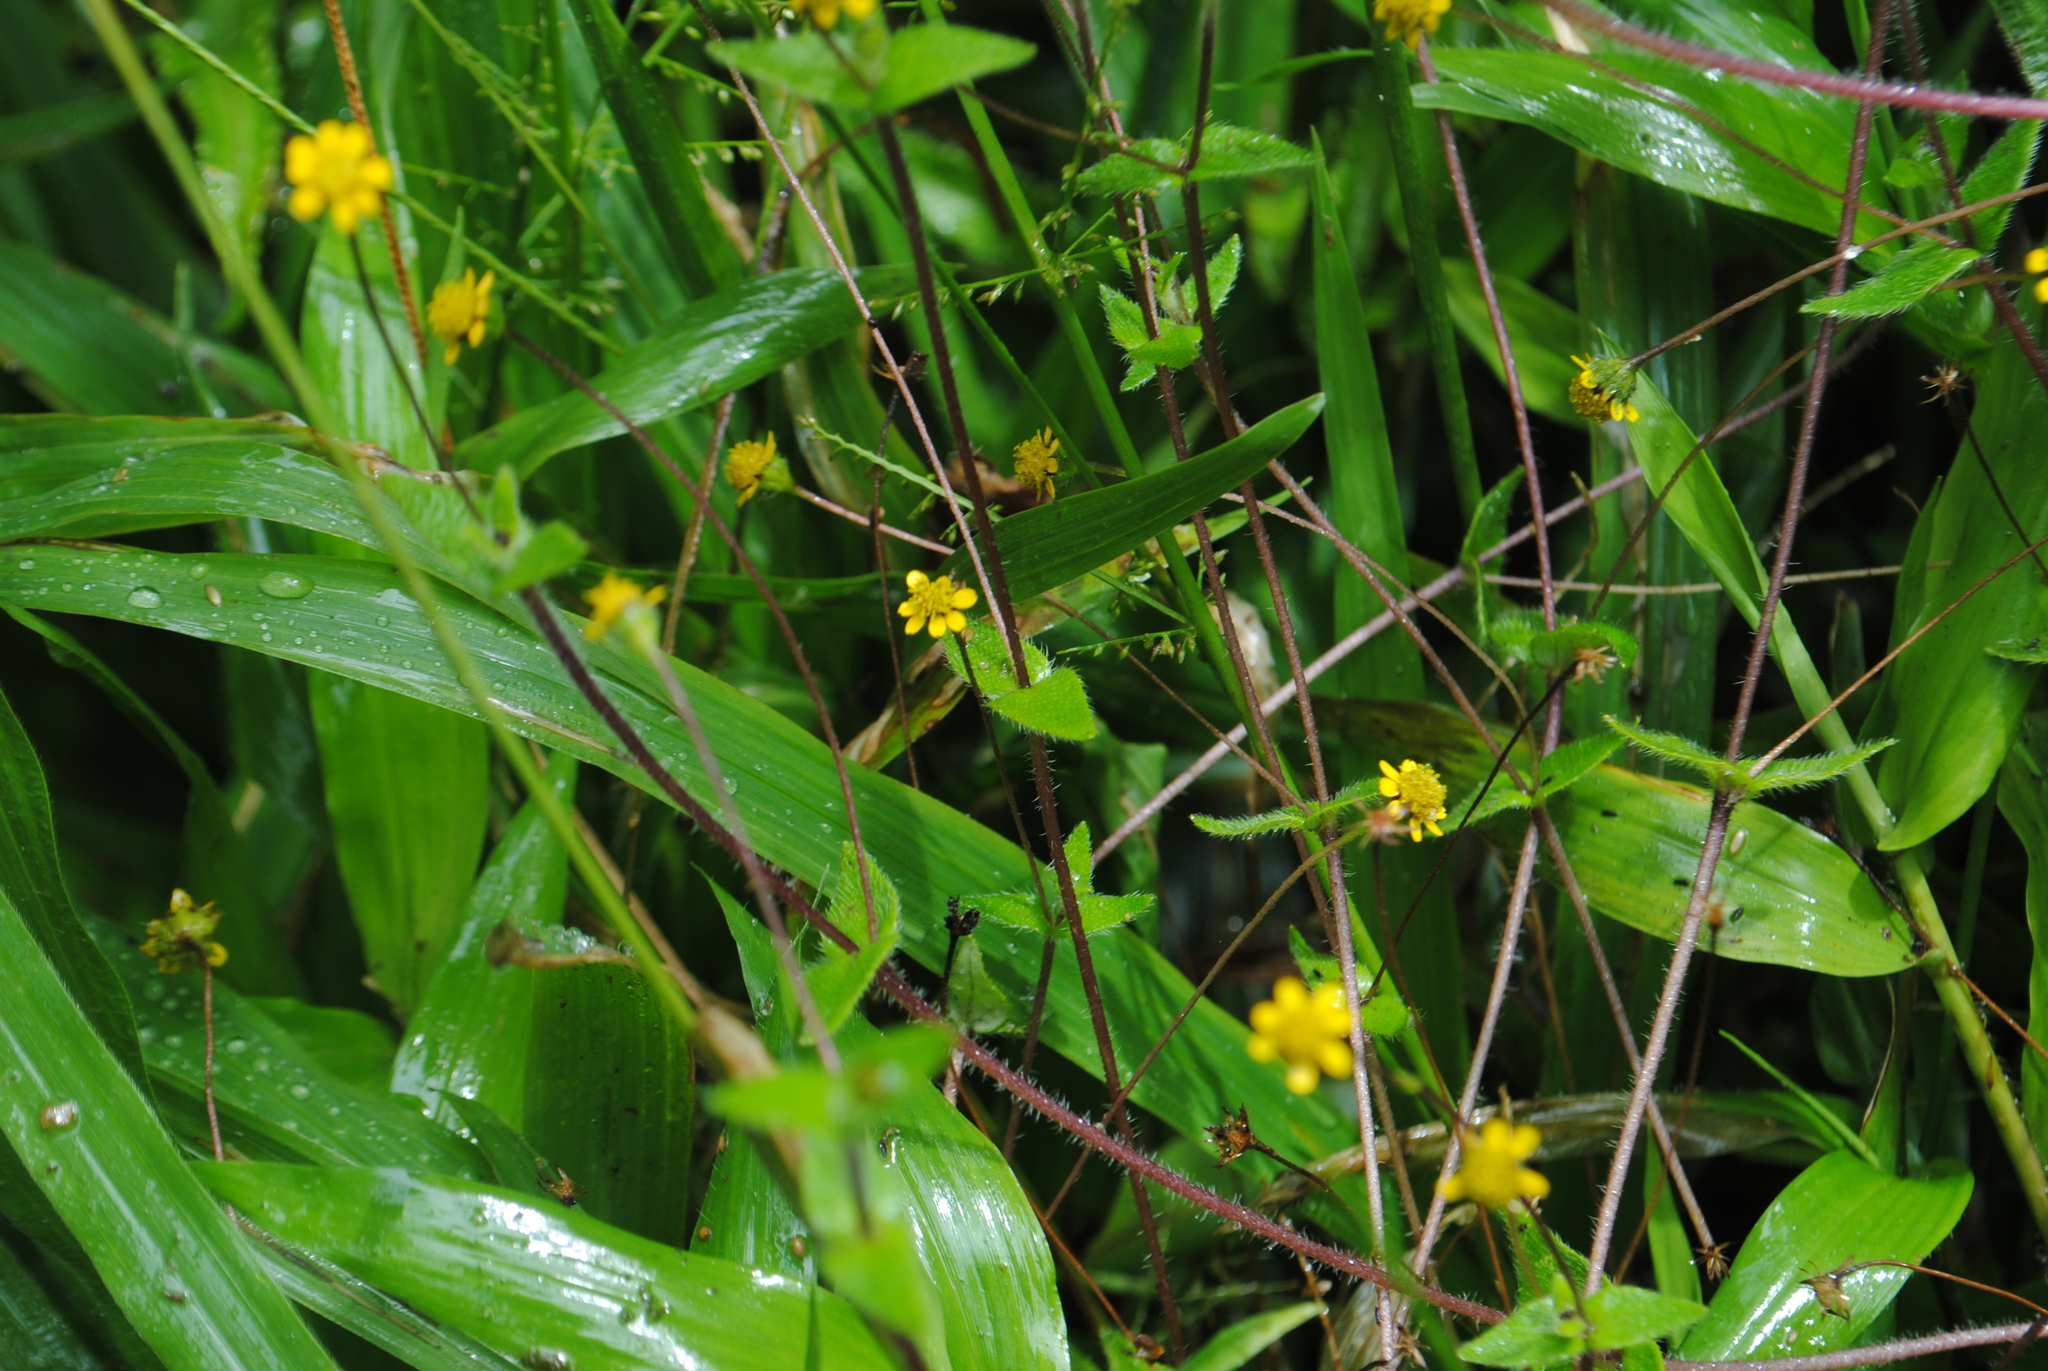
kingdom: Plantae
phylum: Tracheophyta
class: Magnoliopsida
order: Asterales
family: Asteraceae
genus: Jaegeria
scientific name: Jaegeria hirta
